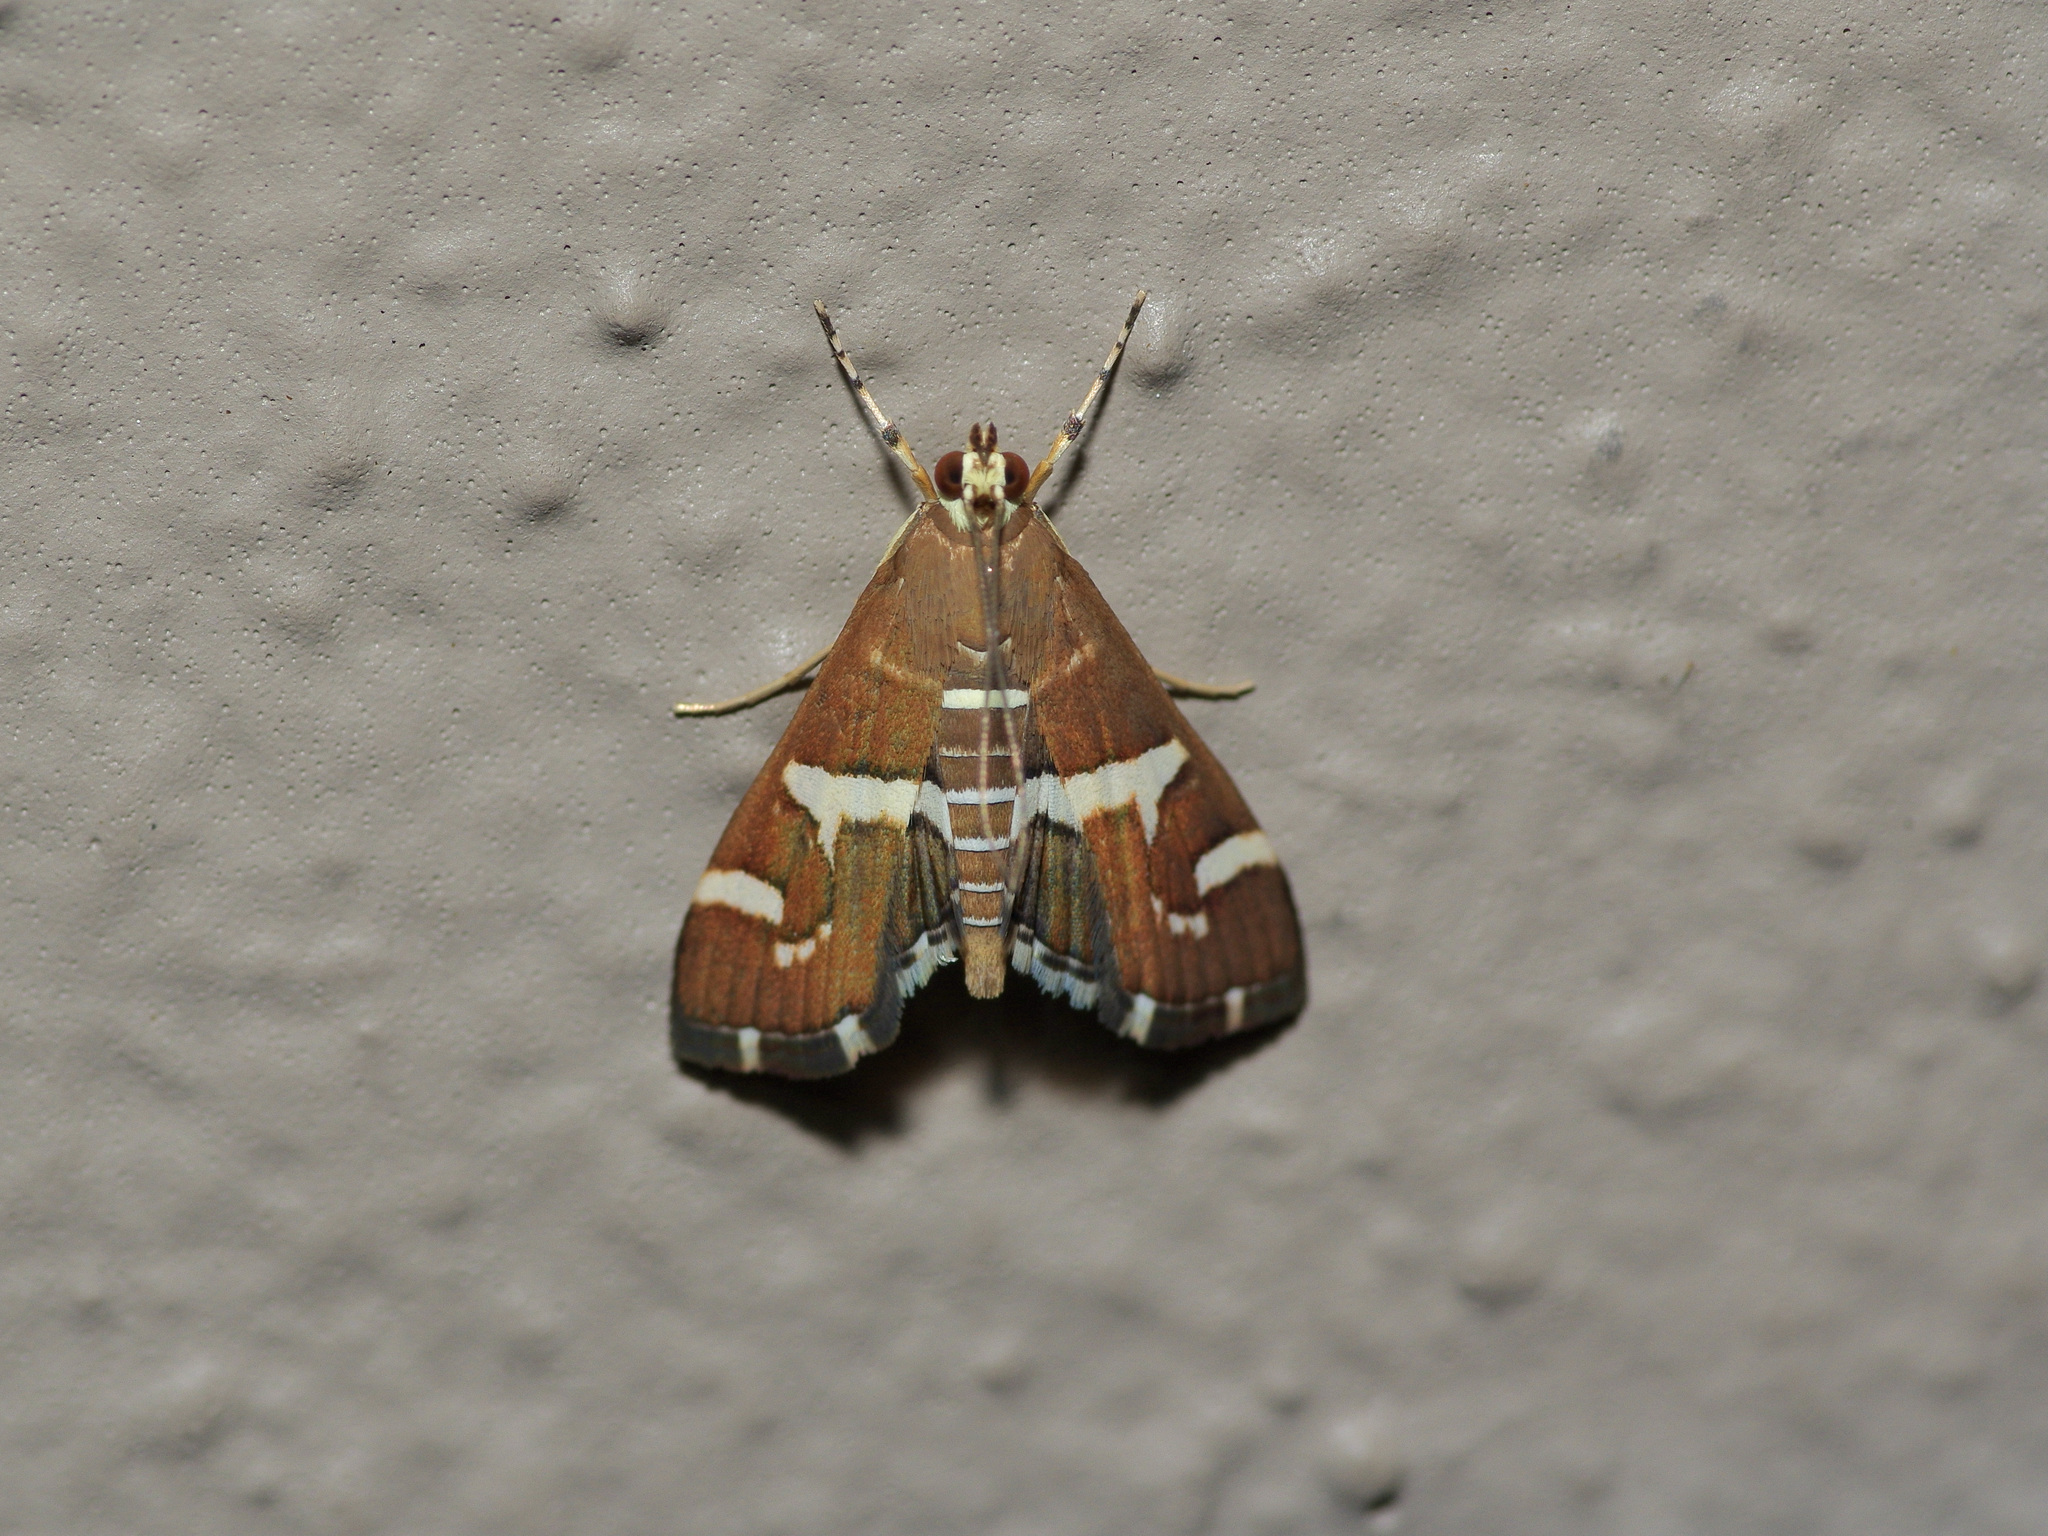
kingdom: Animalia
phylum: Arthropoda
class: Insecta
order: Lepidoptera
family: Crambidae
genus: Spoladea
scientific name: Spoladea recurvalis
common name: Beet webworm moth
